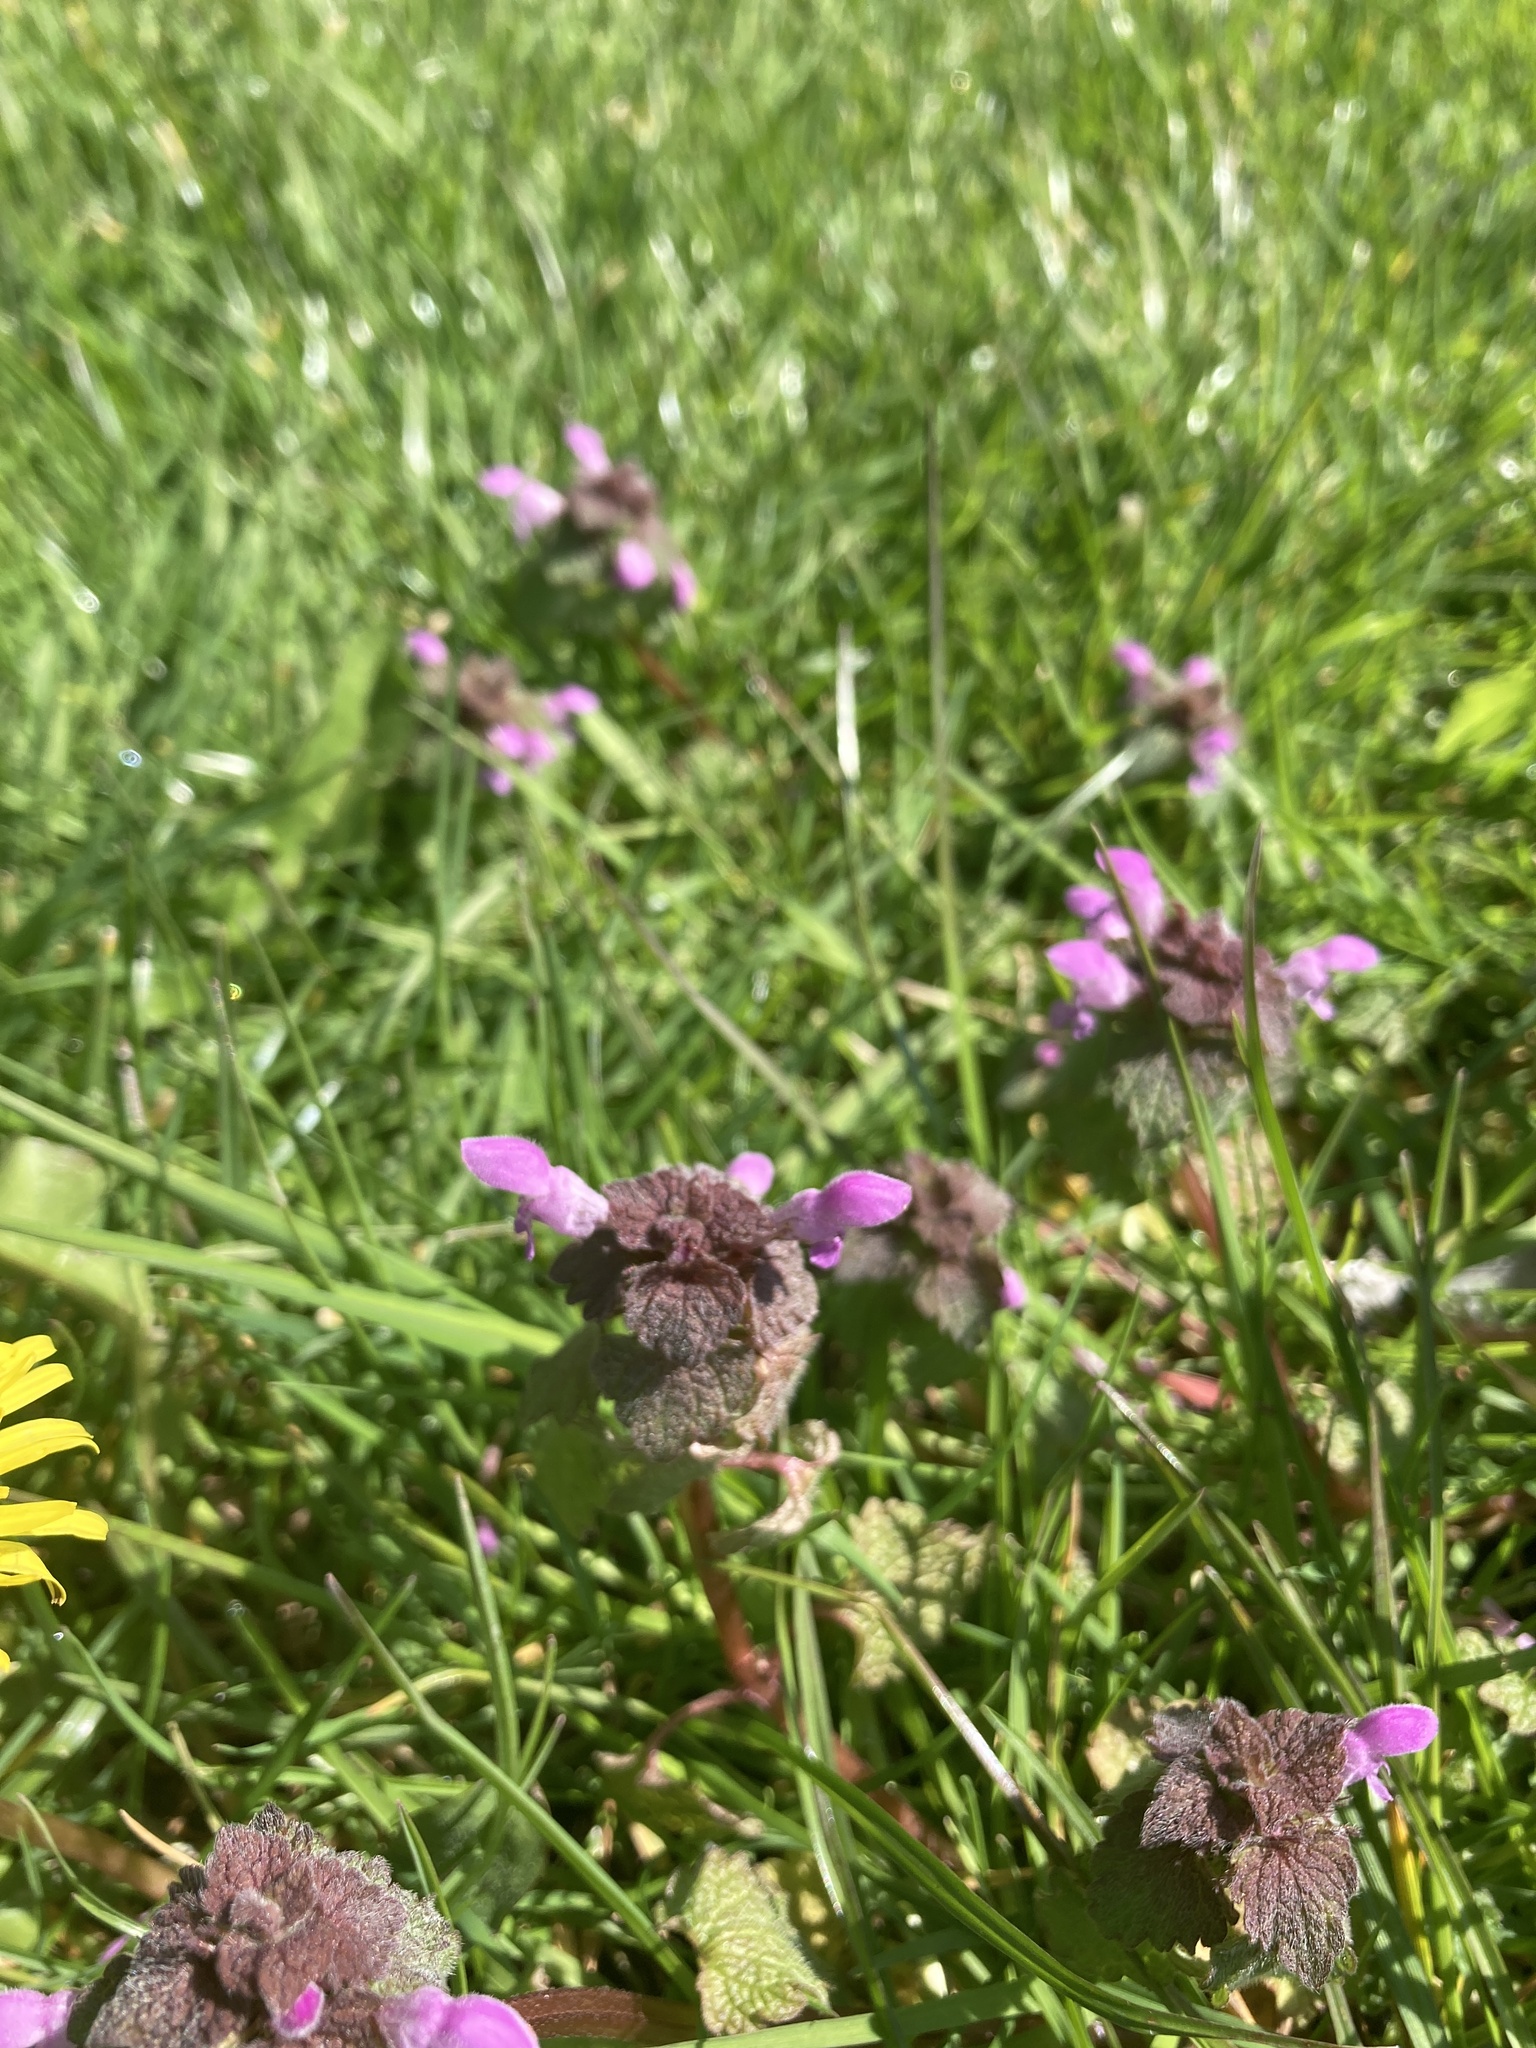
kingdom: Plantae
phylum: Tracheophyta
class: Magnoliopsida
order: Lamiales
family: Lamiaceae
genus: Lamium
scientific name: Lamium purpureum
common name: Red dead-nettle
